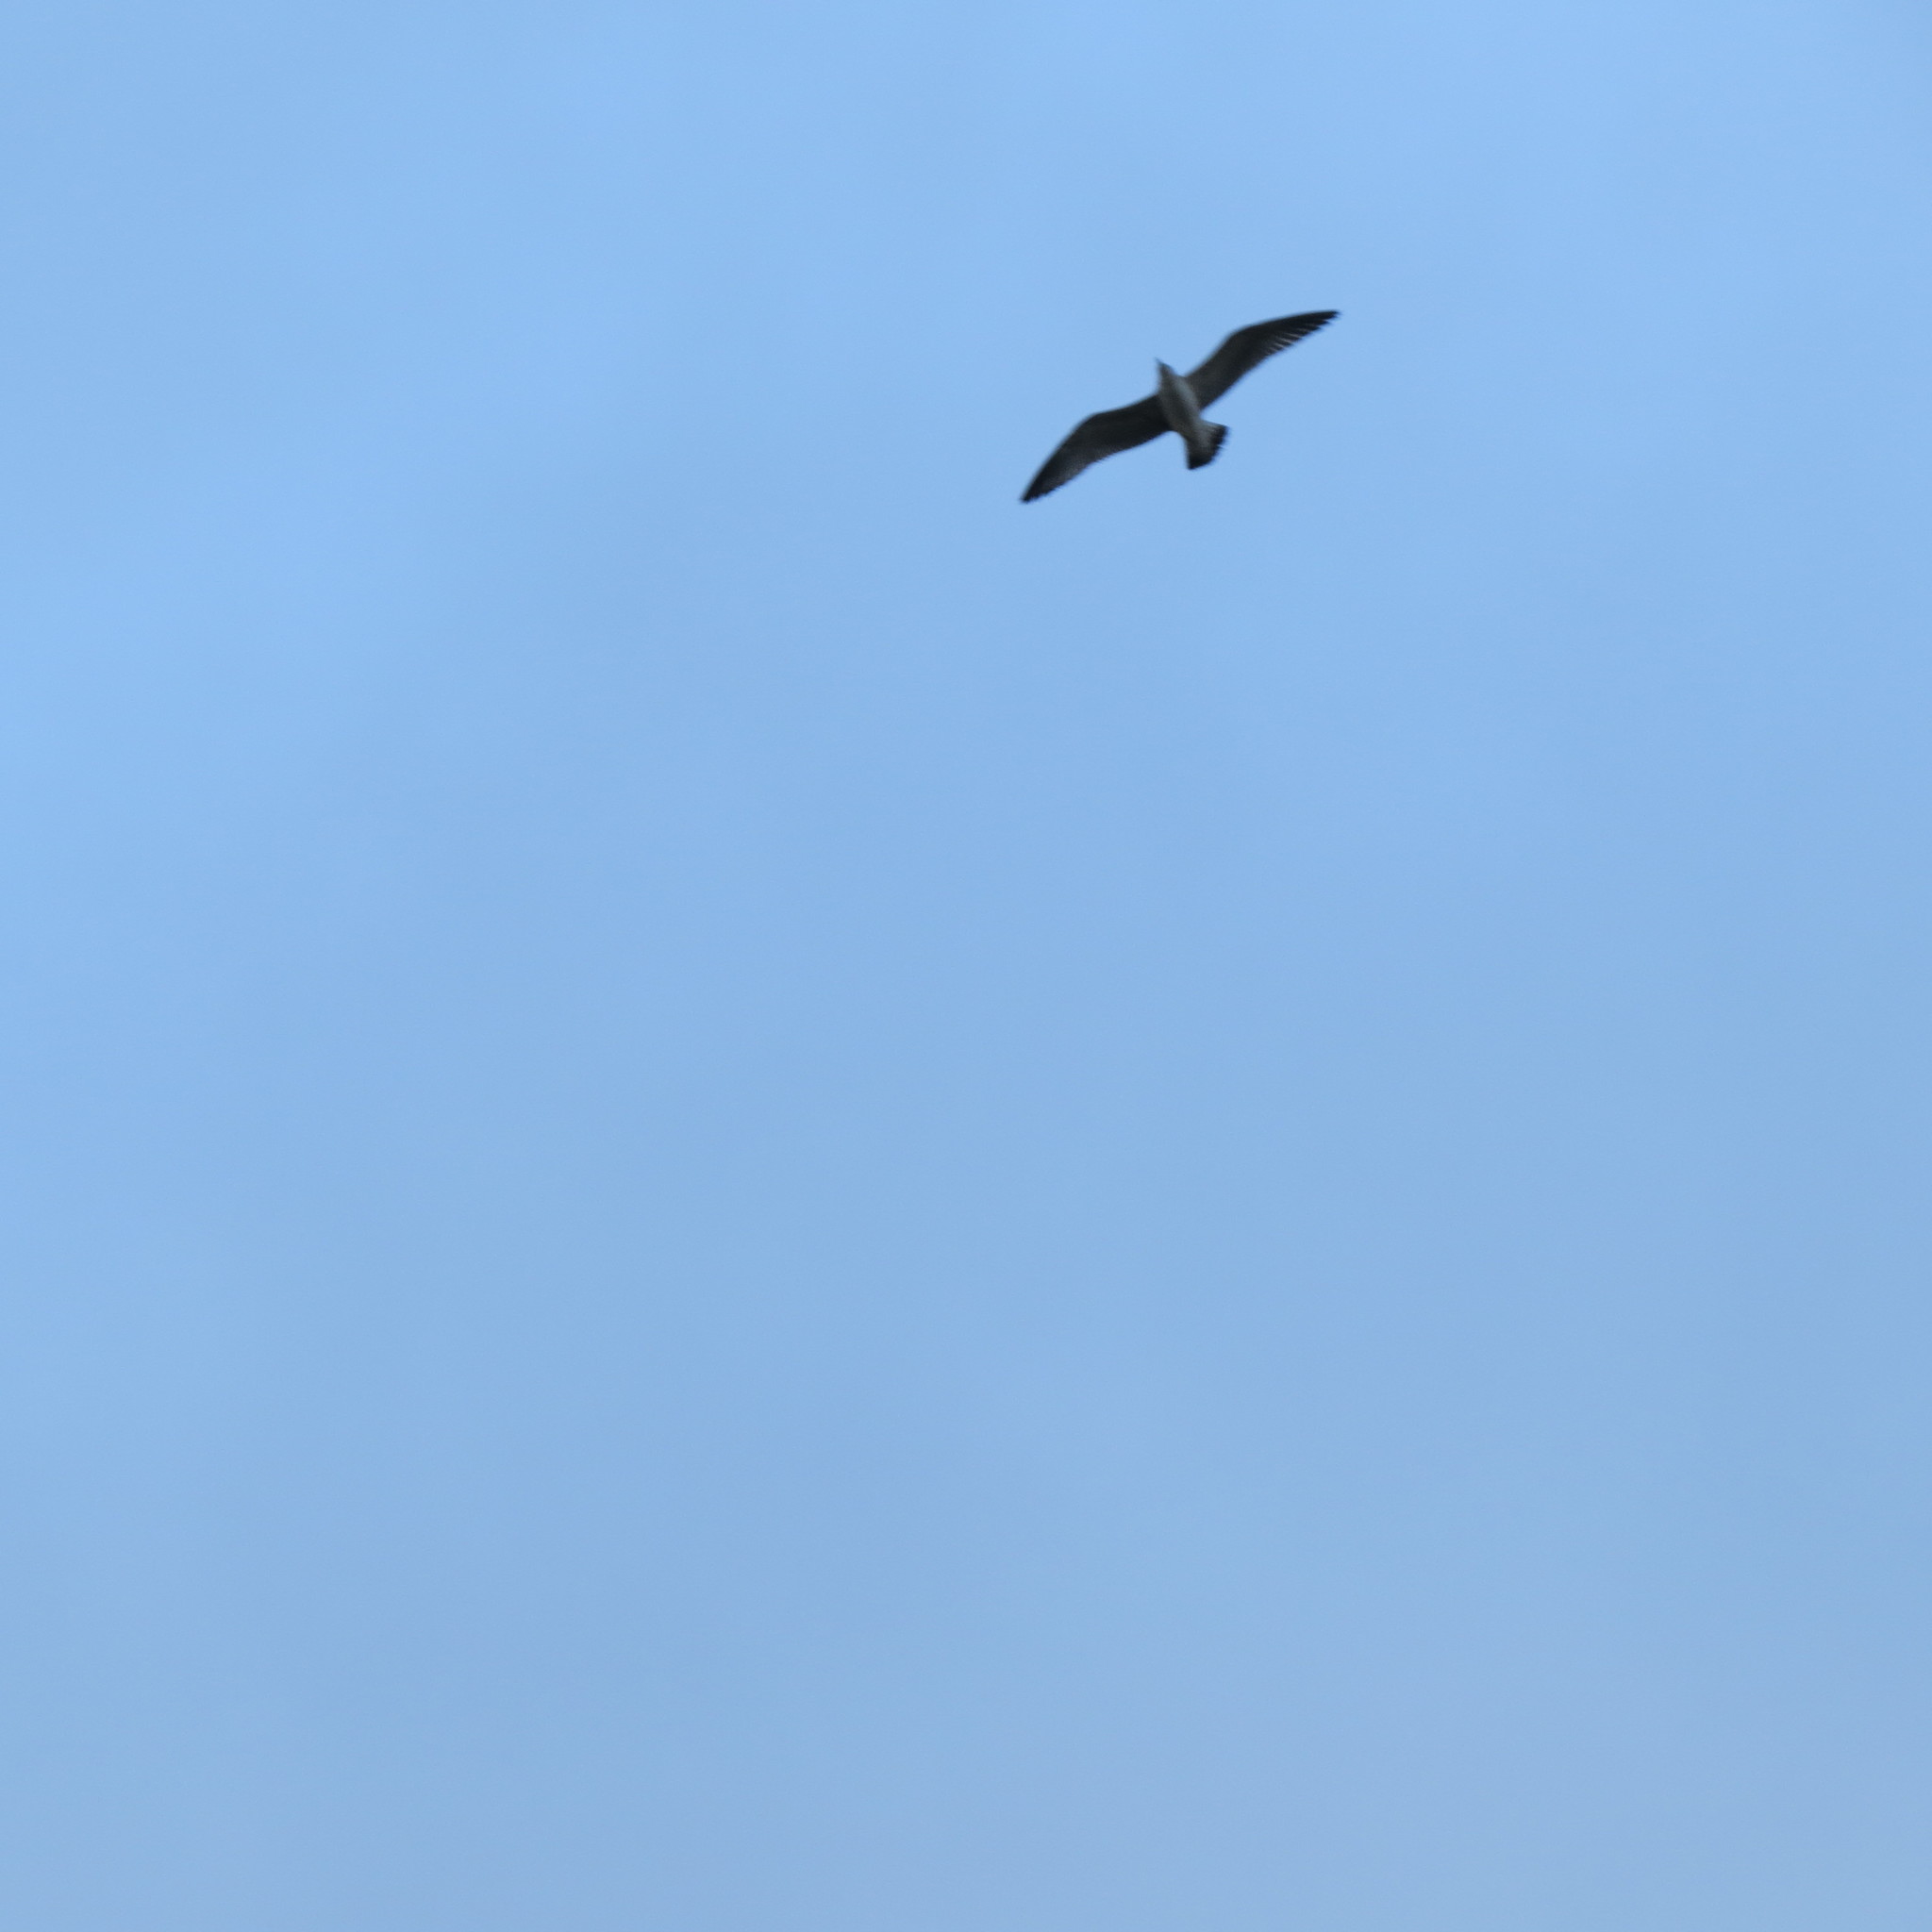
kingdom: Animalia
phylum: Chordata
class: Aves
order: Charadriiformes
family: Laridae
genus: Larus
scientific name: Larus
